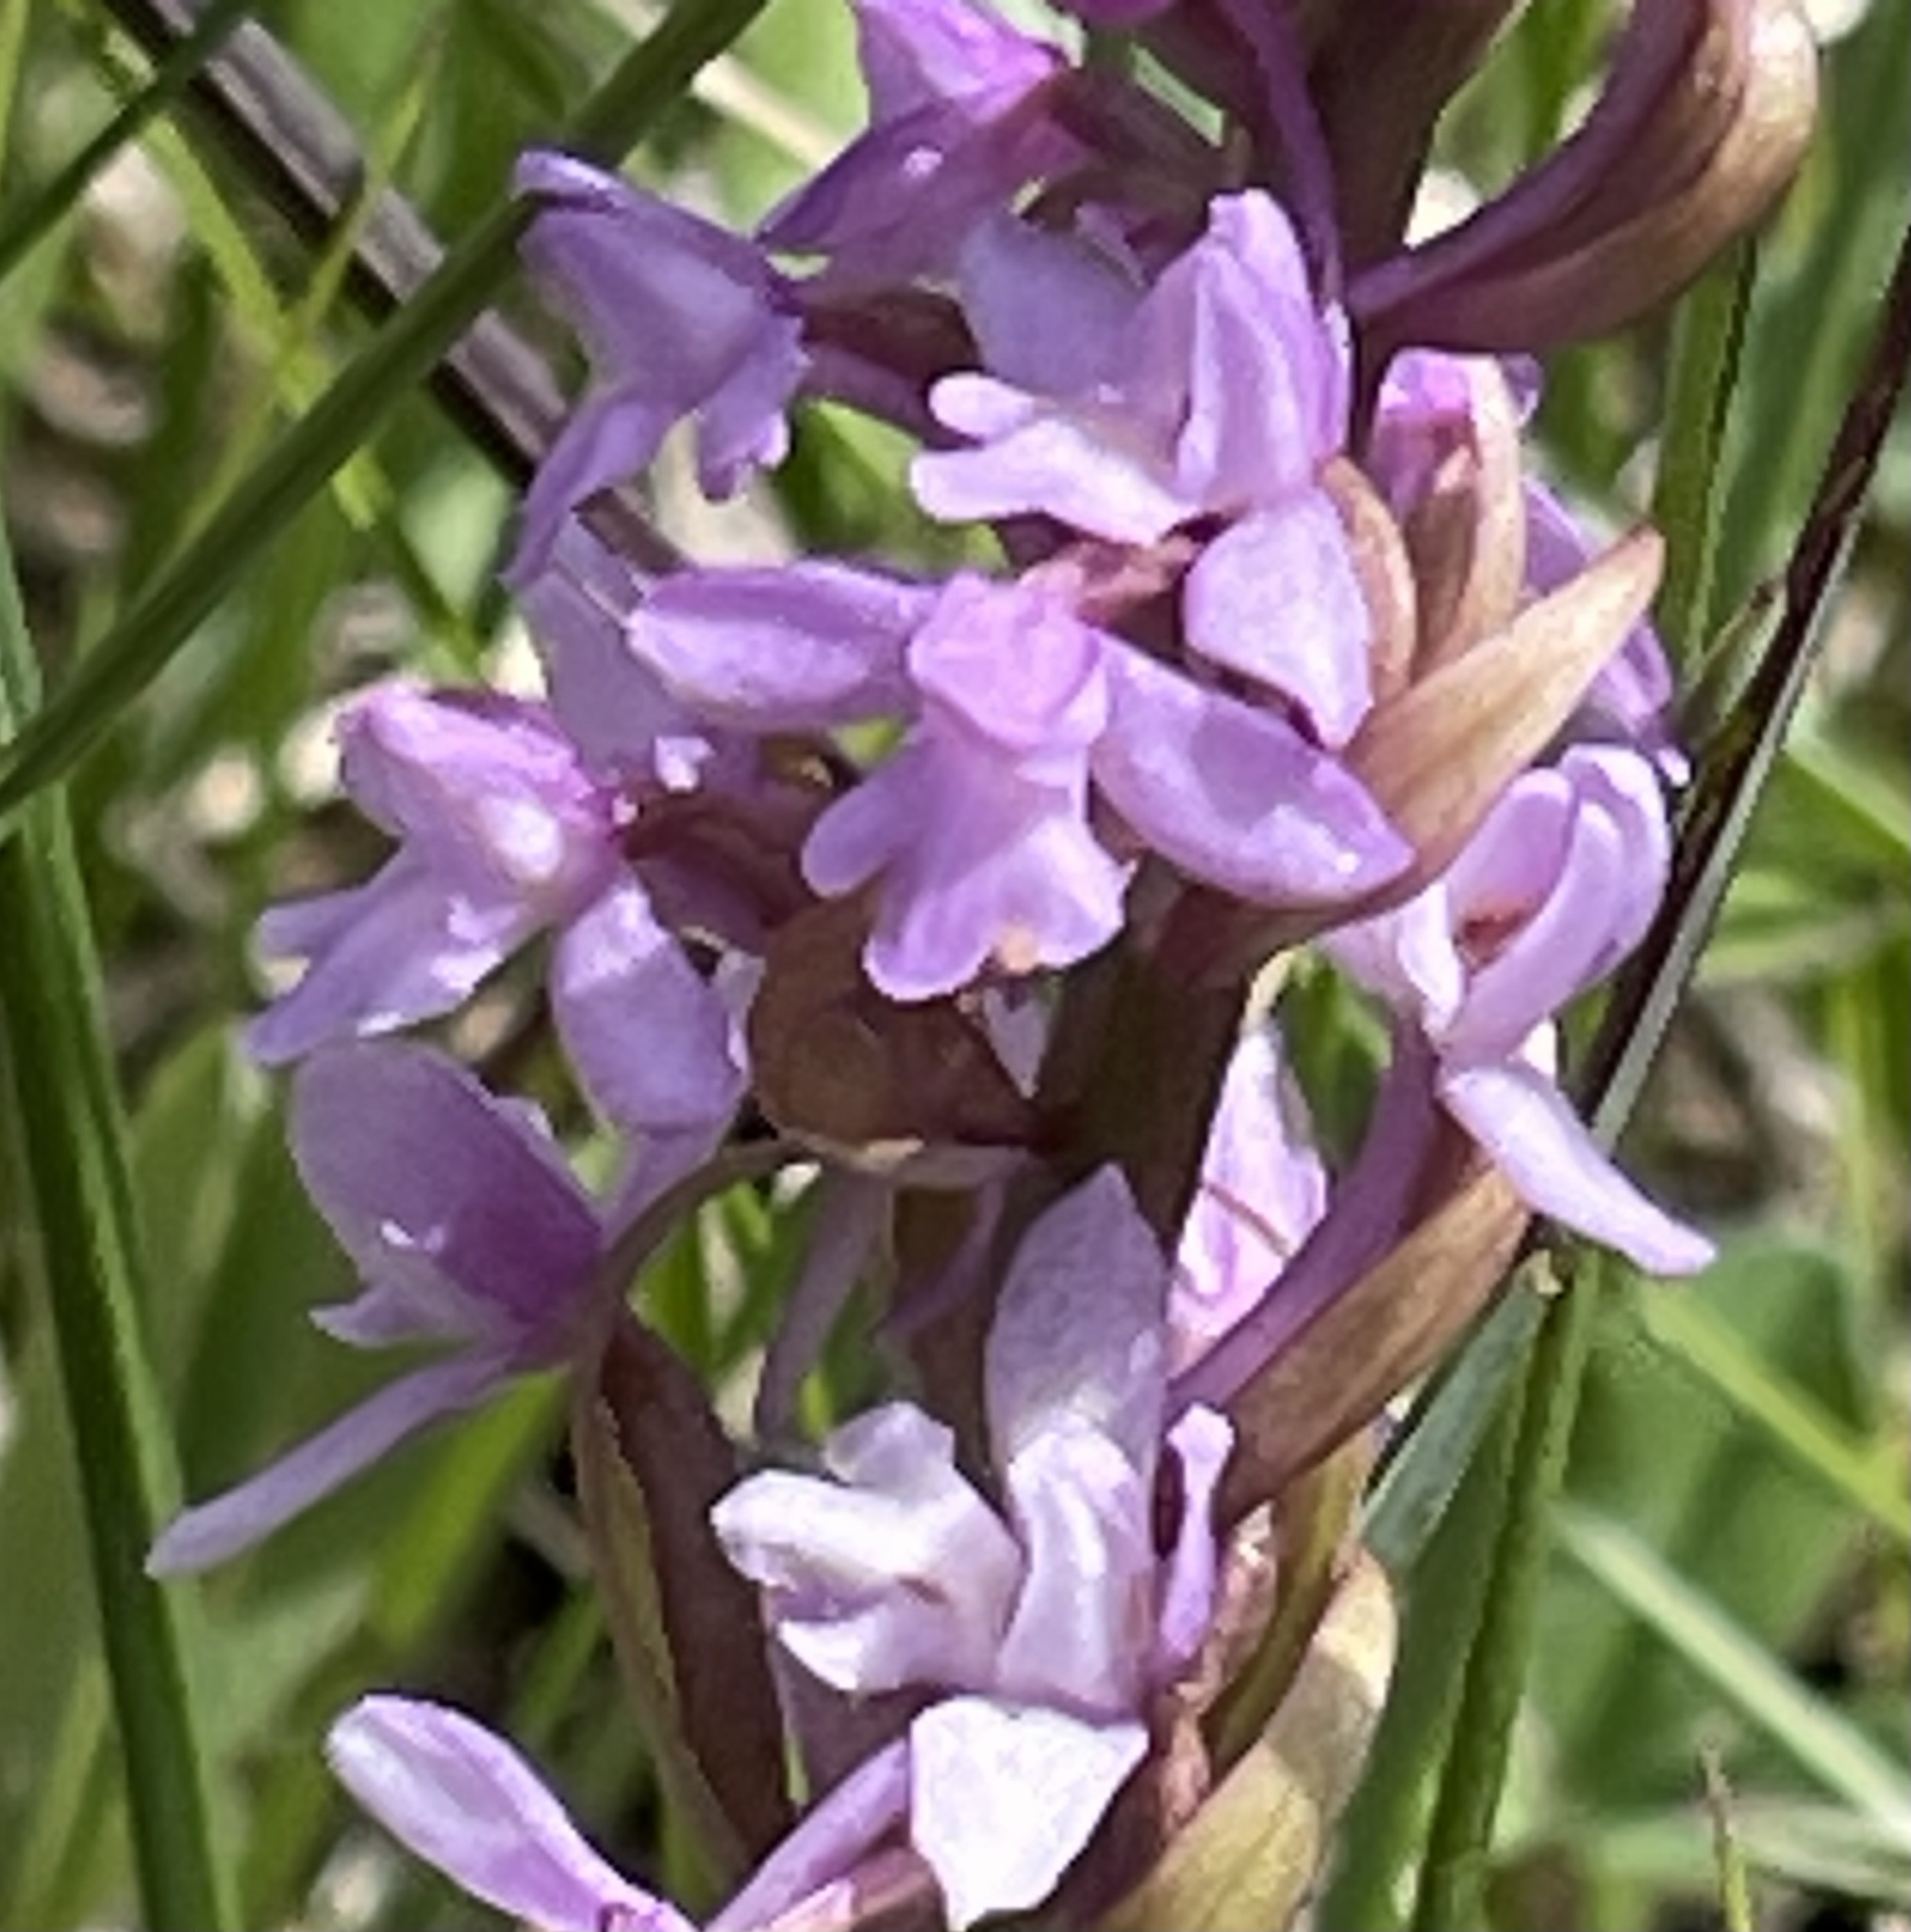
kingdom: Plantae
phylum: Tracheophyta
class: Liliopsida
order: Asparagales
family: Orchidaceae
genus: Gymnadenia
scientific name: Gymnadenia conopsea
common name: Fragrant orchid
